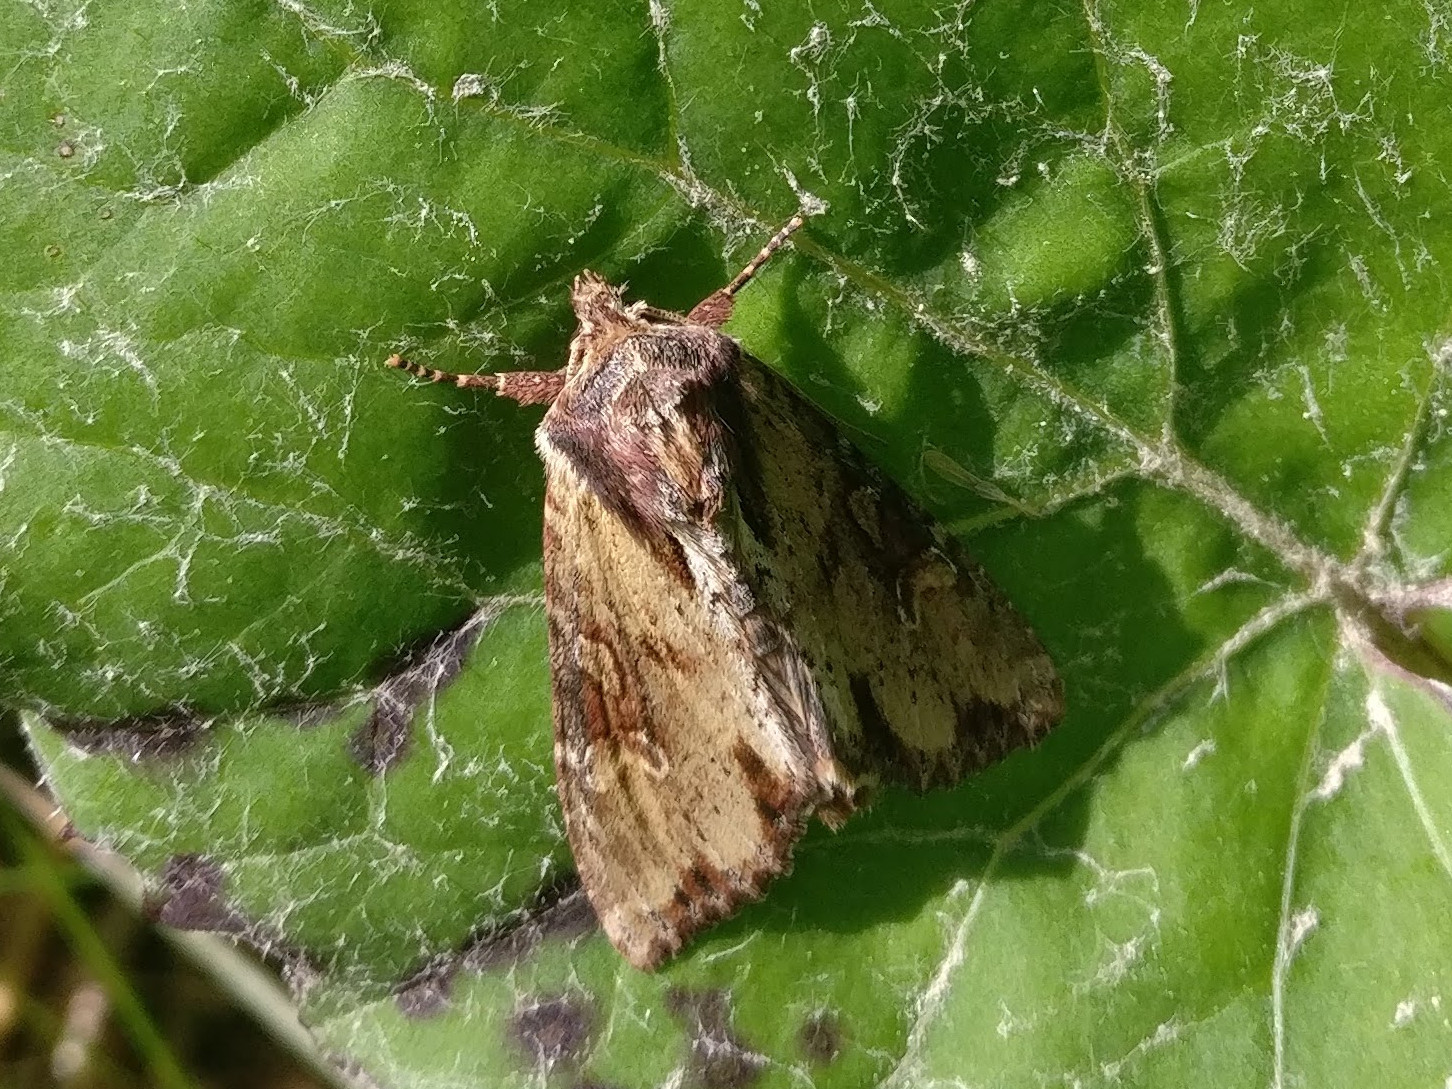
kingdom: Animalia
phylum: Arthropoda
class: Insecta
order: Lepidoptera
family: Noctuidae
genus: Apamea
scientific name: Apamea crenata
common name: Clouded-bordered brindle
